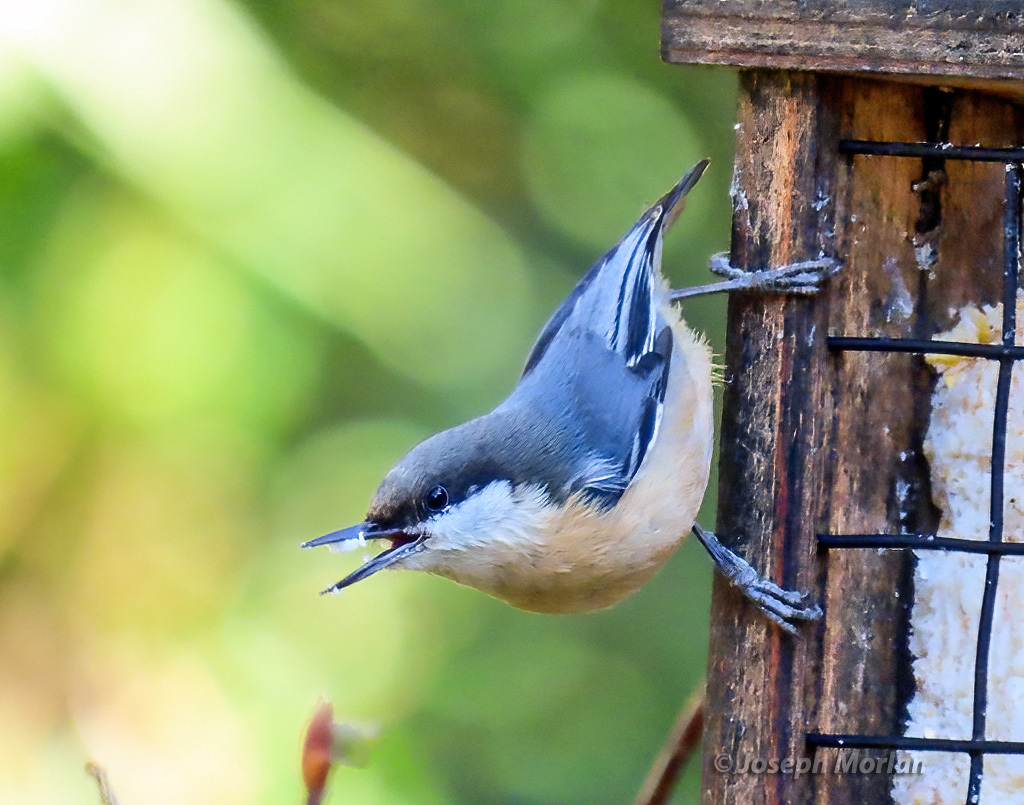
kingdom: Animalia
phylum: Chordata
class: Aves
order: Passeriformes
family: Sittidae
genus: Sitta
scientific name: Sitta pygmaea
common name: Pygmy nuthatch
